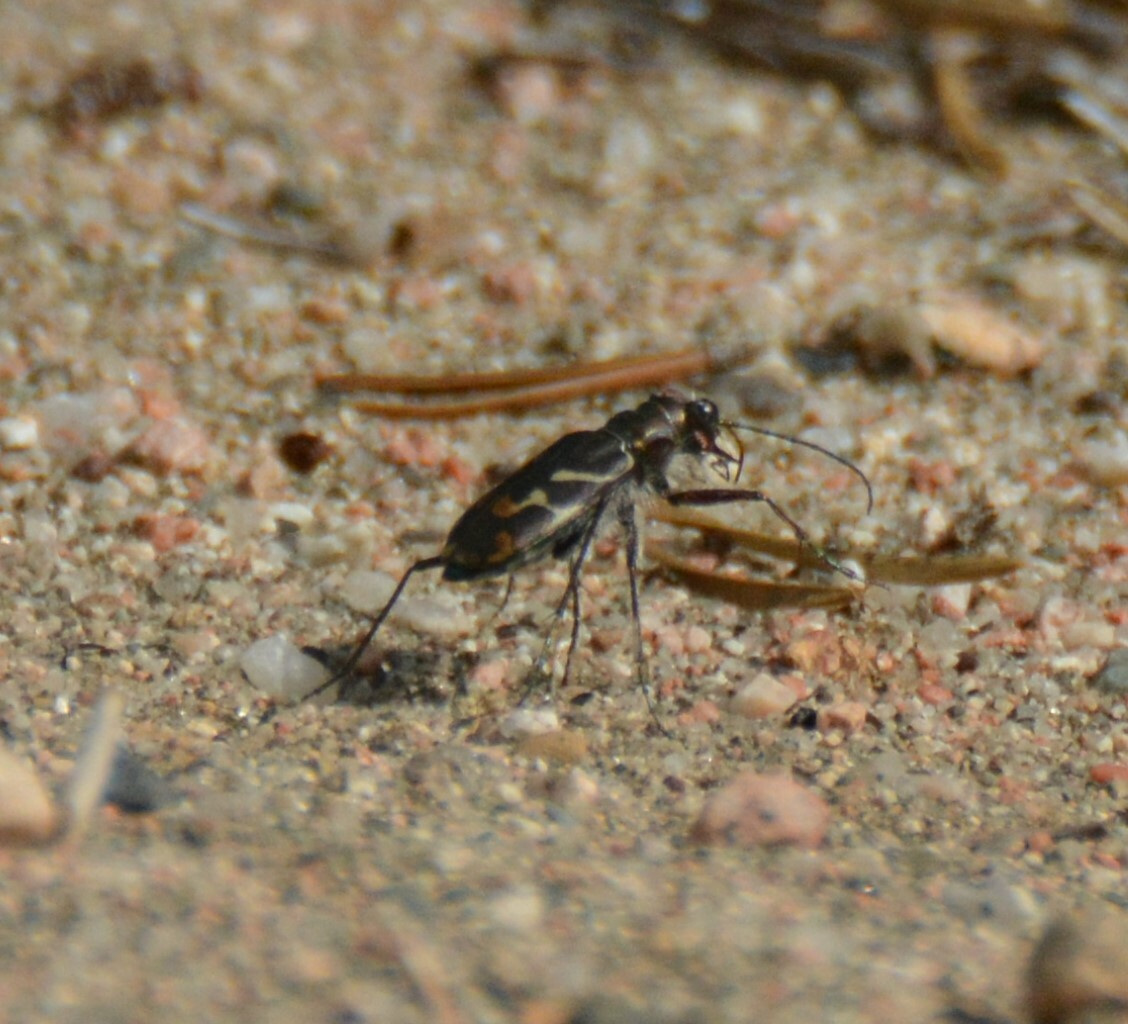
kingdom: Animalia
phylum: Arthropoda
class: Insecta
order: Coleoptera
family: Carabidae
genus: Cicindela
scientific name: Cicindela tranquebarica
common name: Oblique-lined tiger beetle
